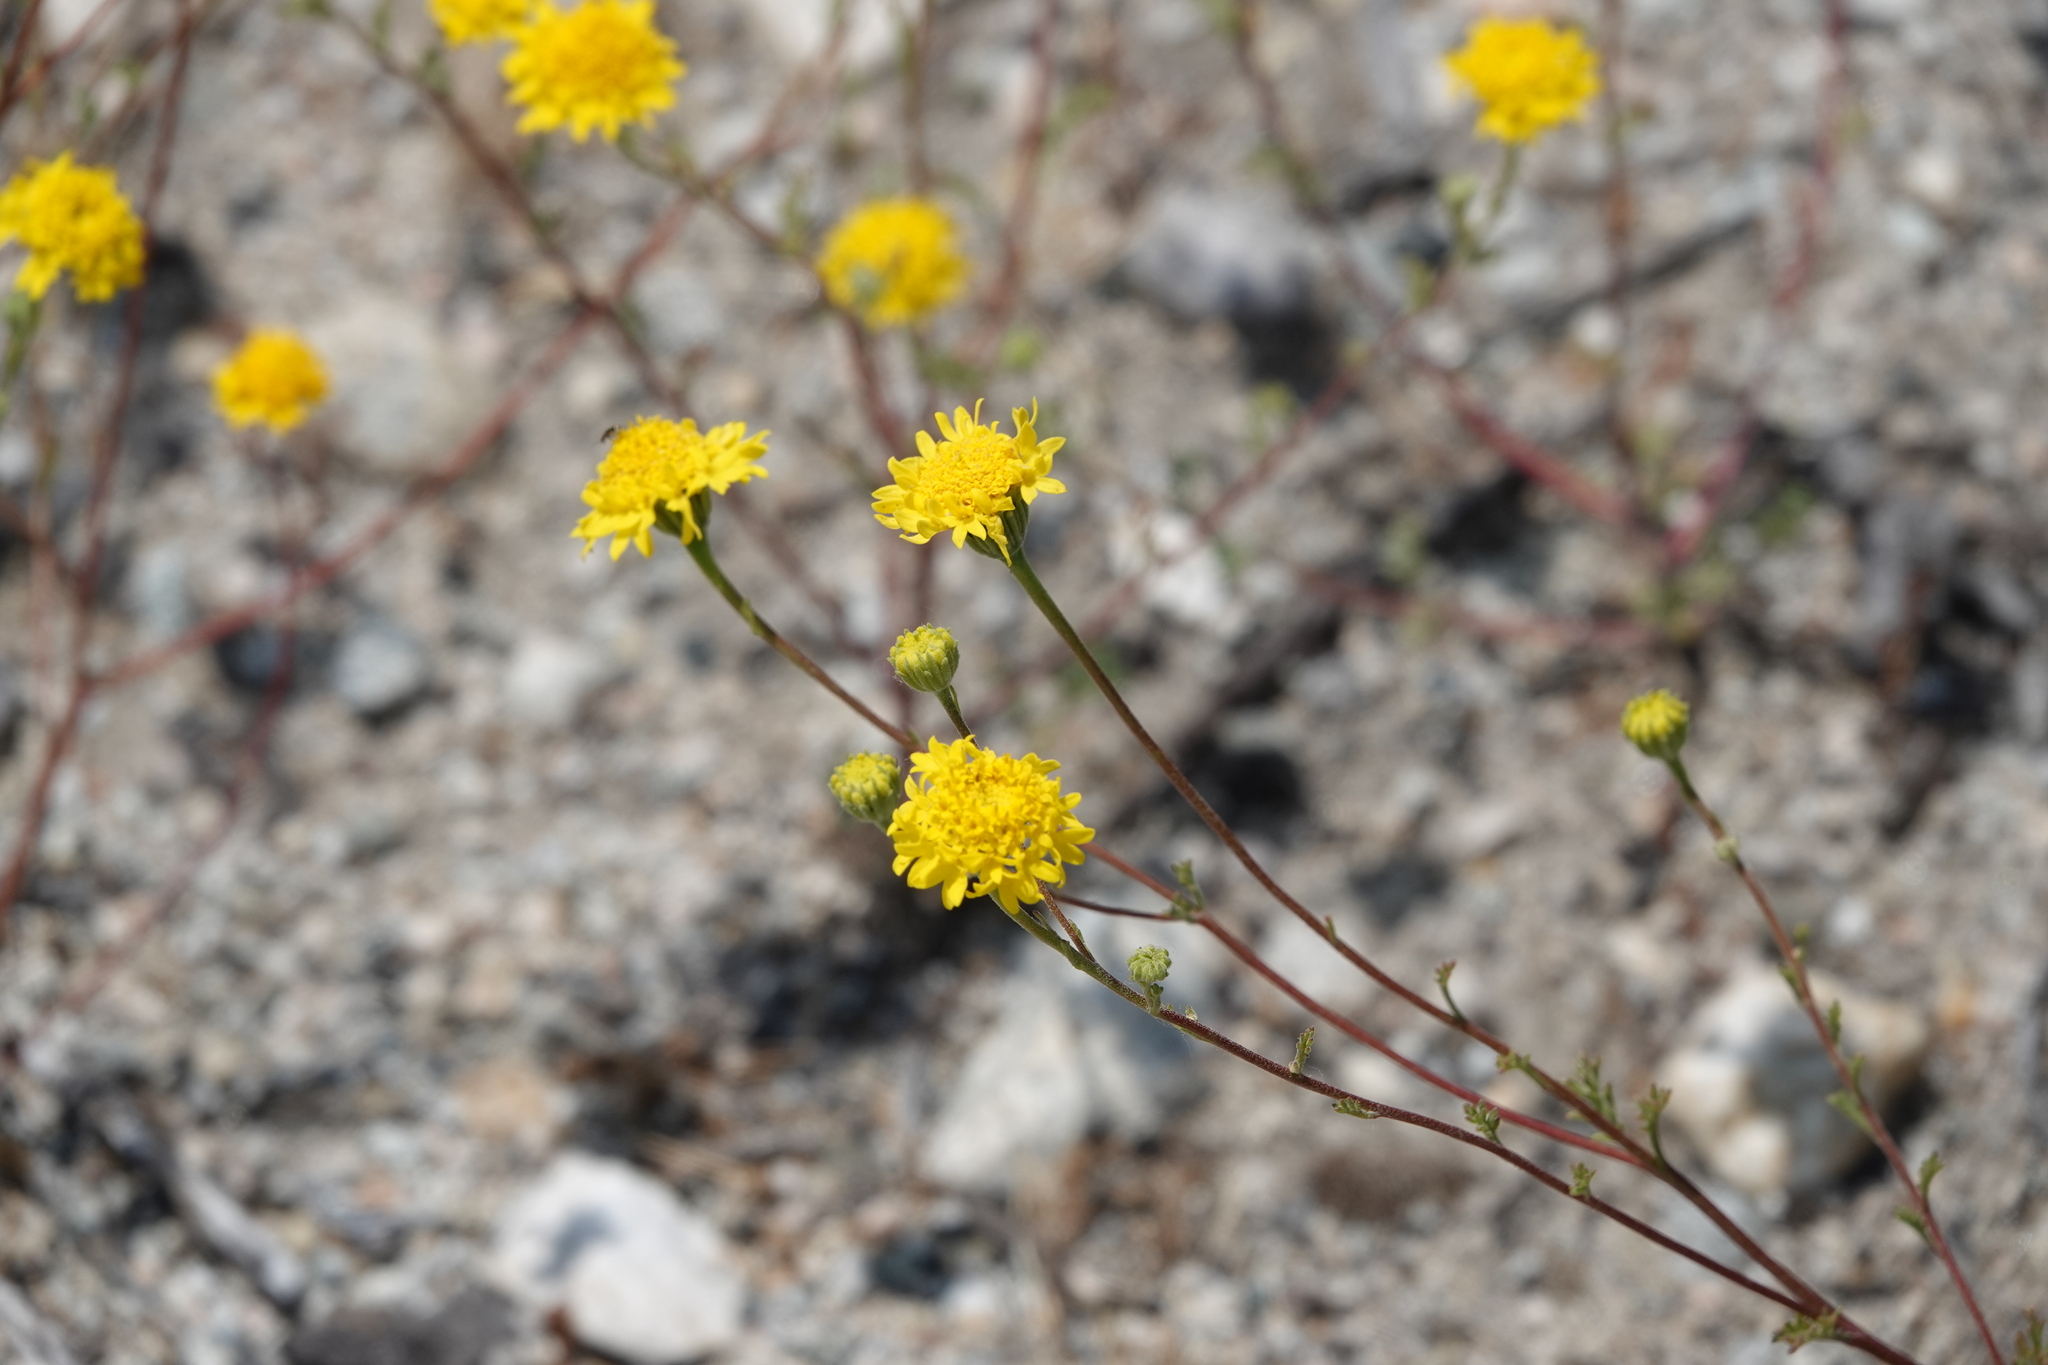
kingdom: Plantae
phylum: Tracheophyta
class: Magnoliopsida
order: Asterales
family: Asteraceae
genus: Chaenactis
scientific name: Chaenactis glabriuscula
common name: Yellow pincushion
